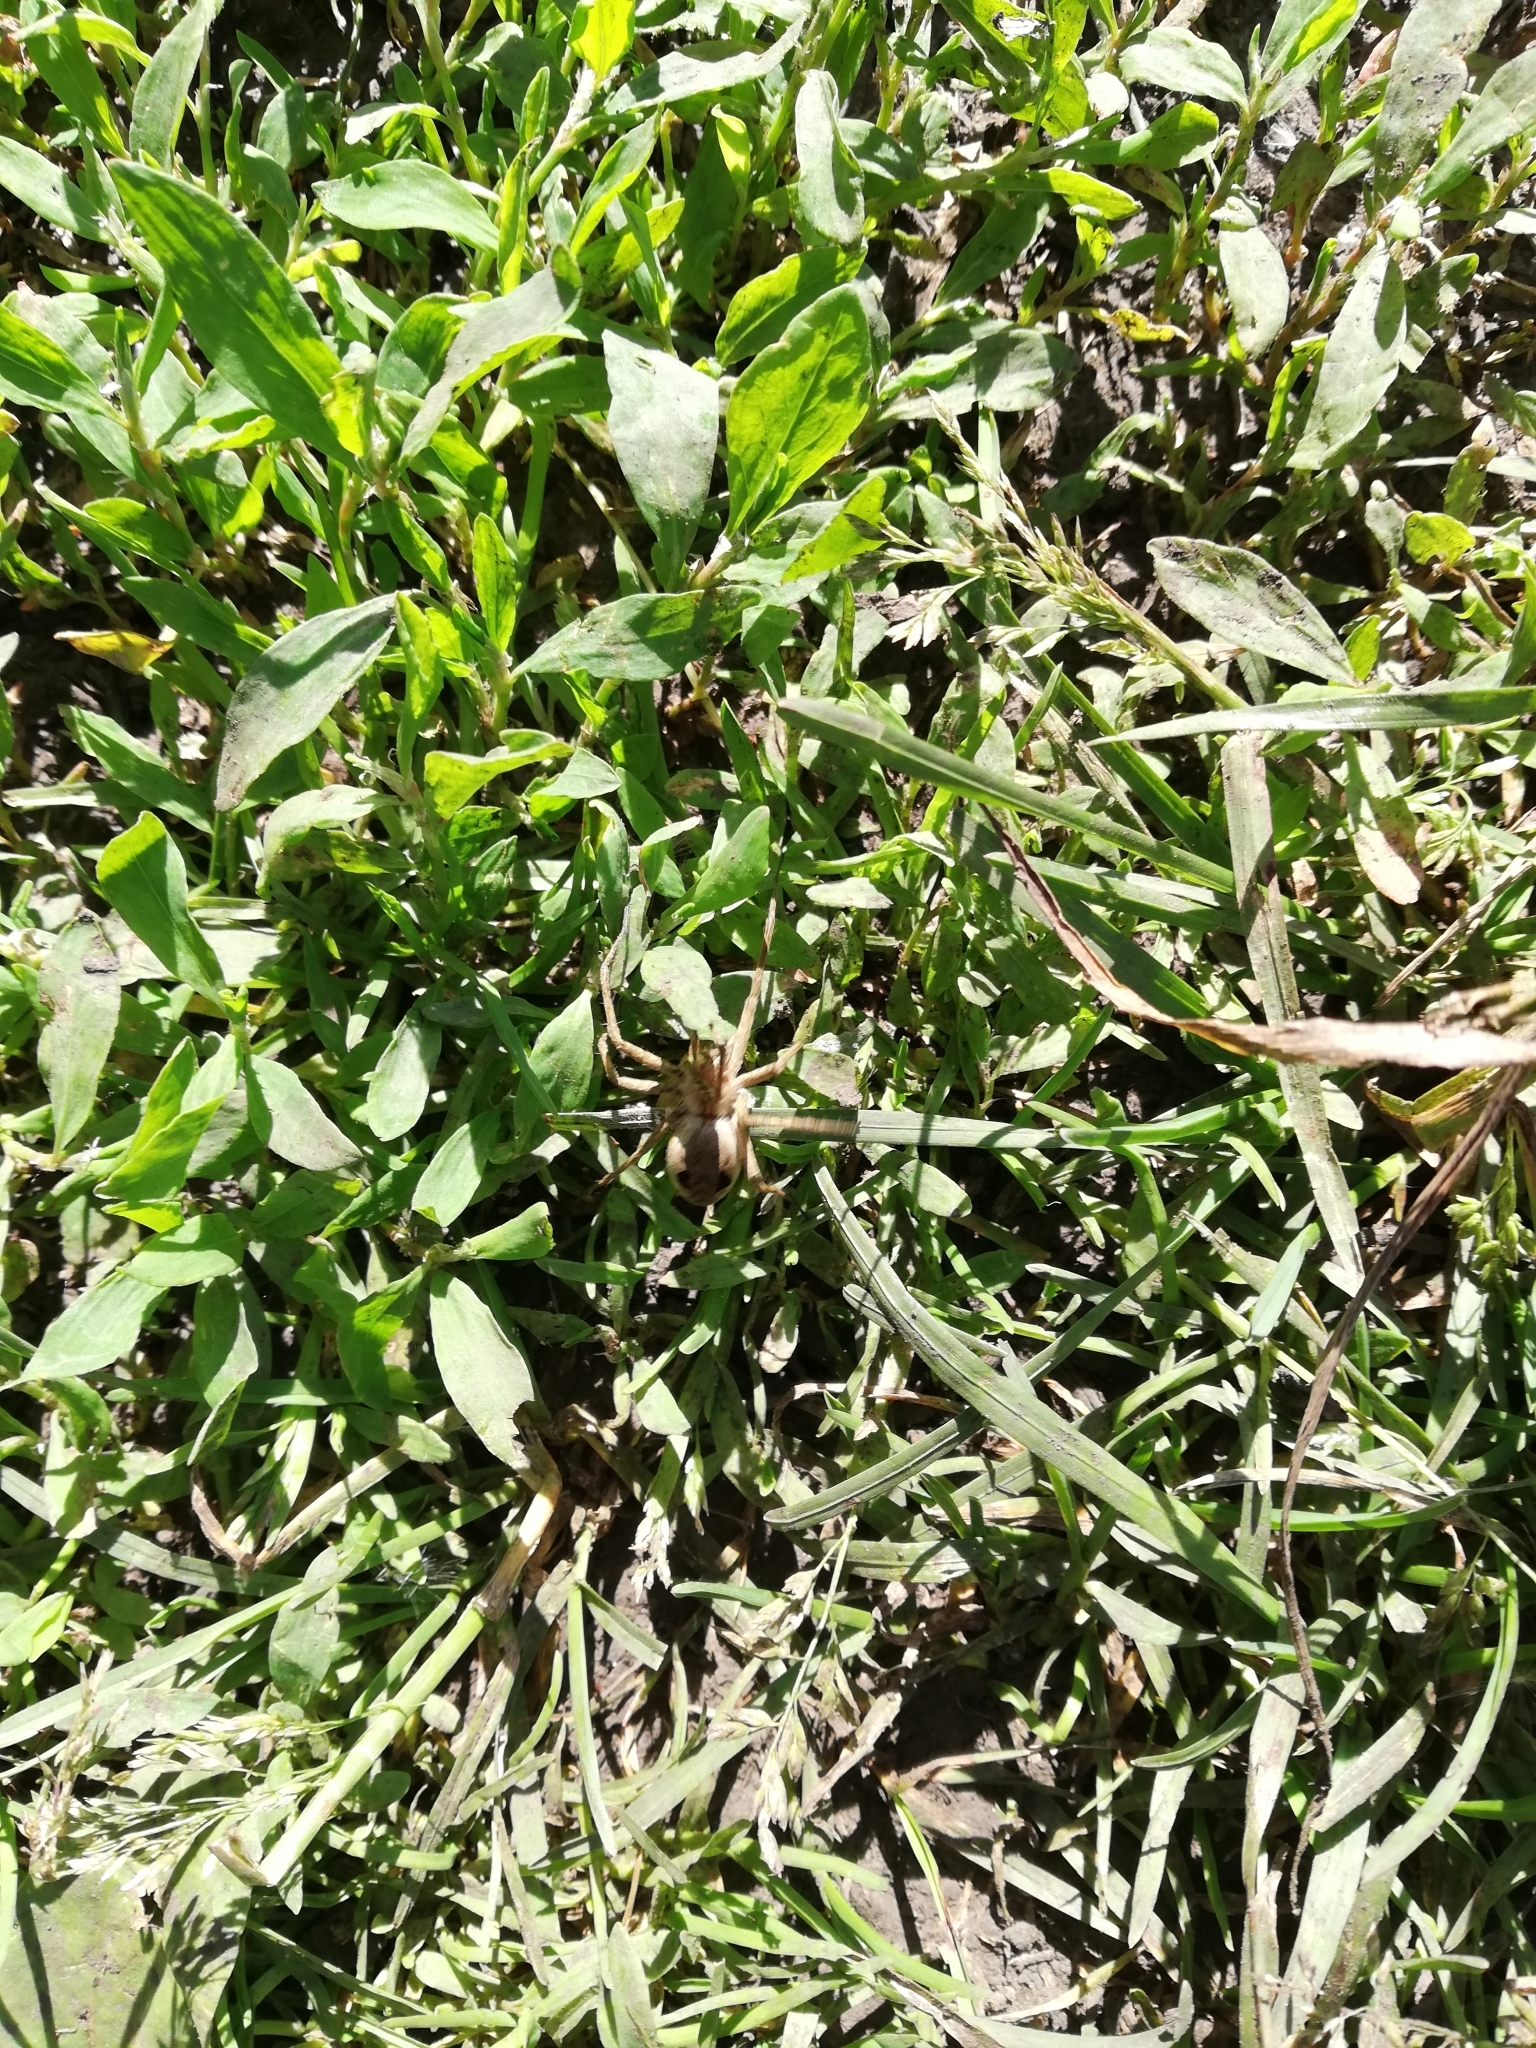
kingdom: Animalia
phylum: Arthropoda
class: Arachnida
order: Araneae
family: Pisauridae
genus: Pisaura
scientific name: Pisaura mirabilis
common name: Tent spider
